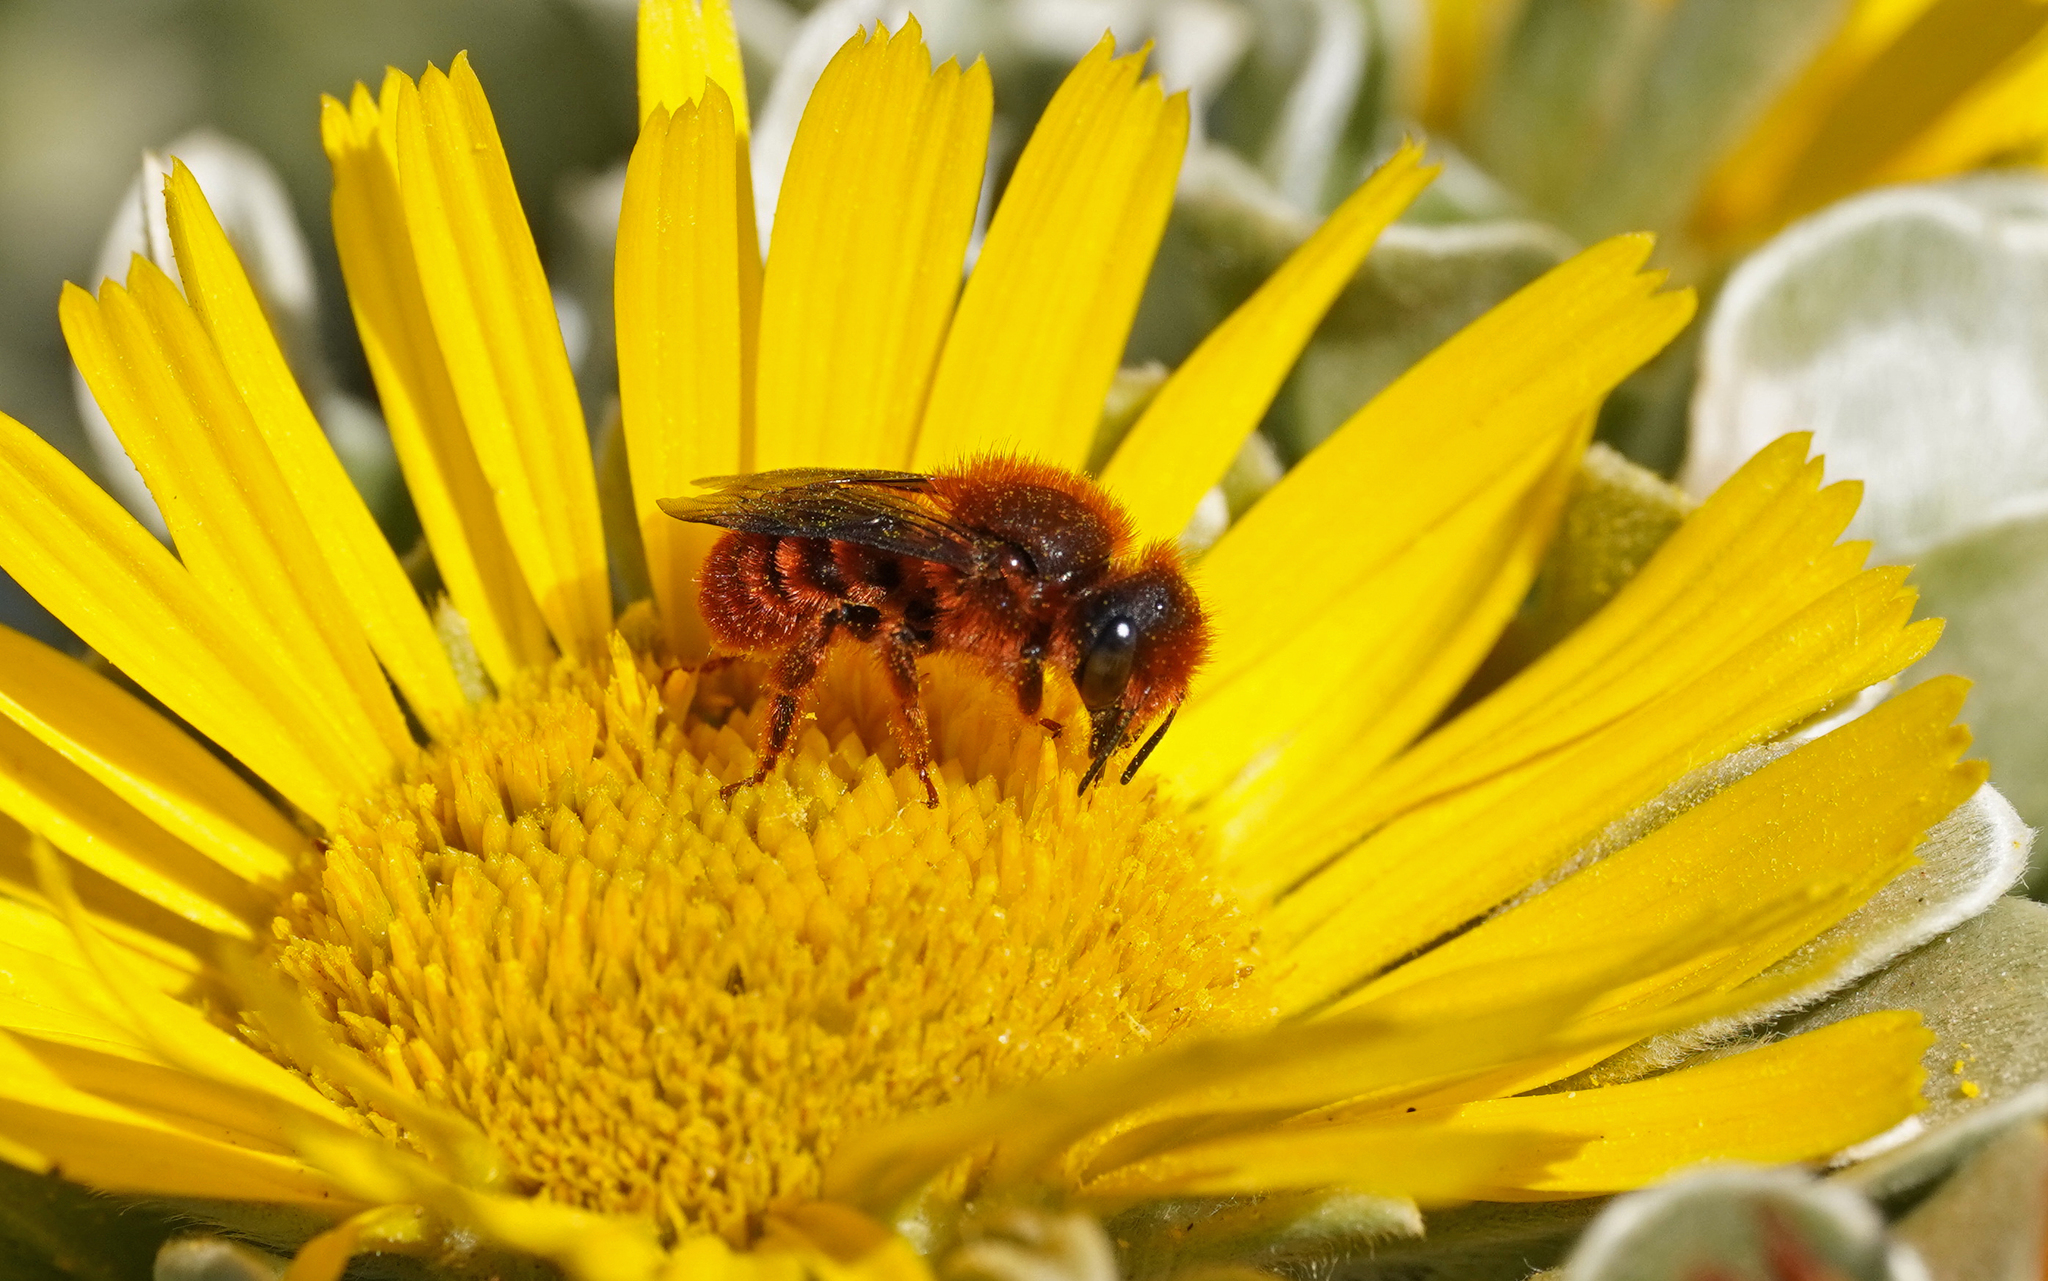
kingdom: Animalia
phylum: Arthropoda
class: Insecta
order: Hymenoptera
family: Megachilidae
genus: Osmia
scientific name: Osmia cinnabarina
